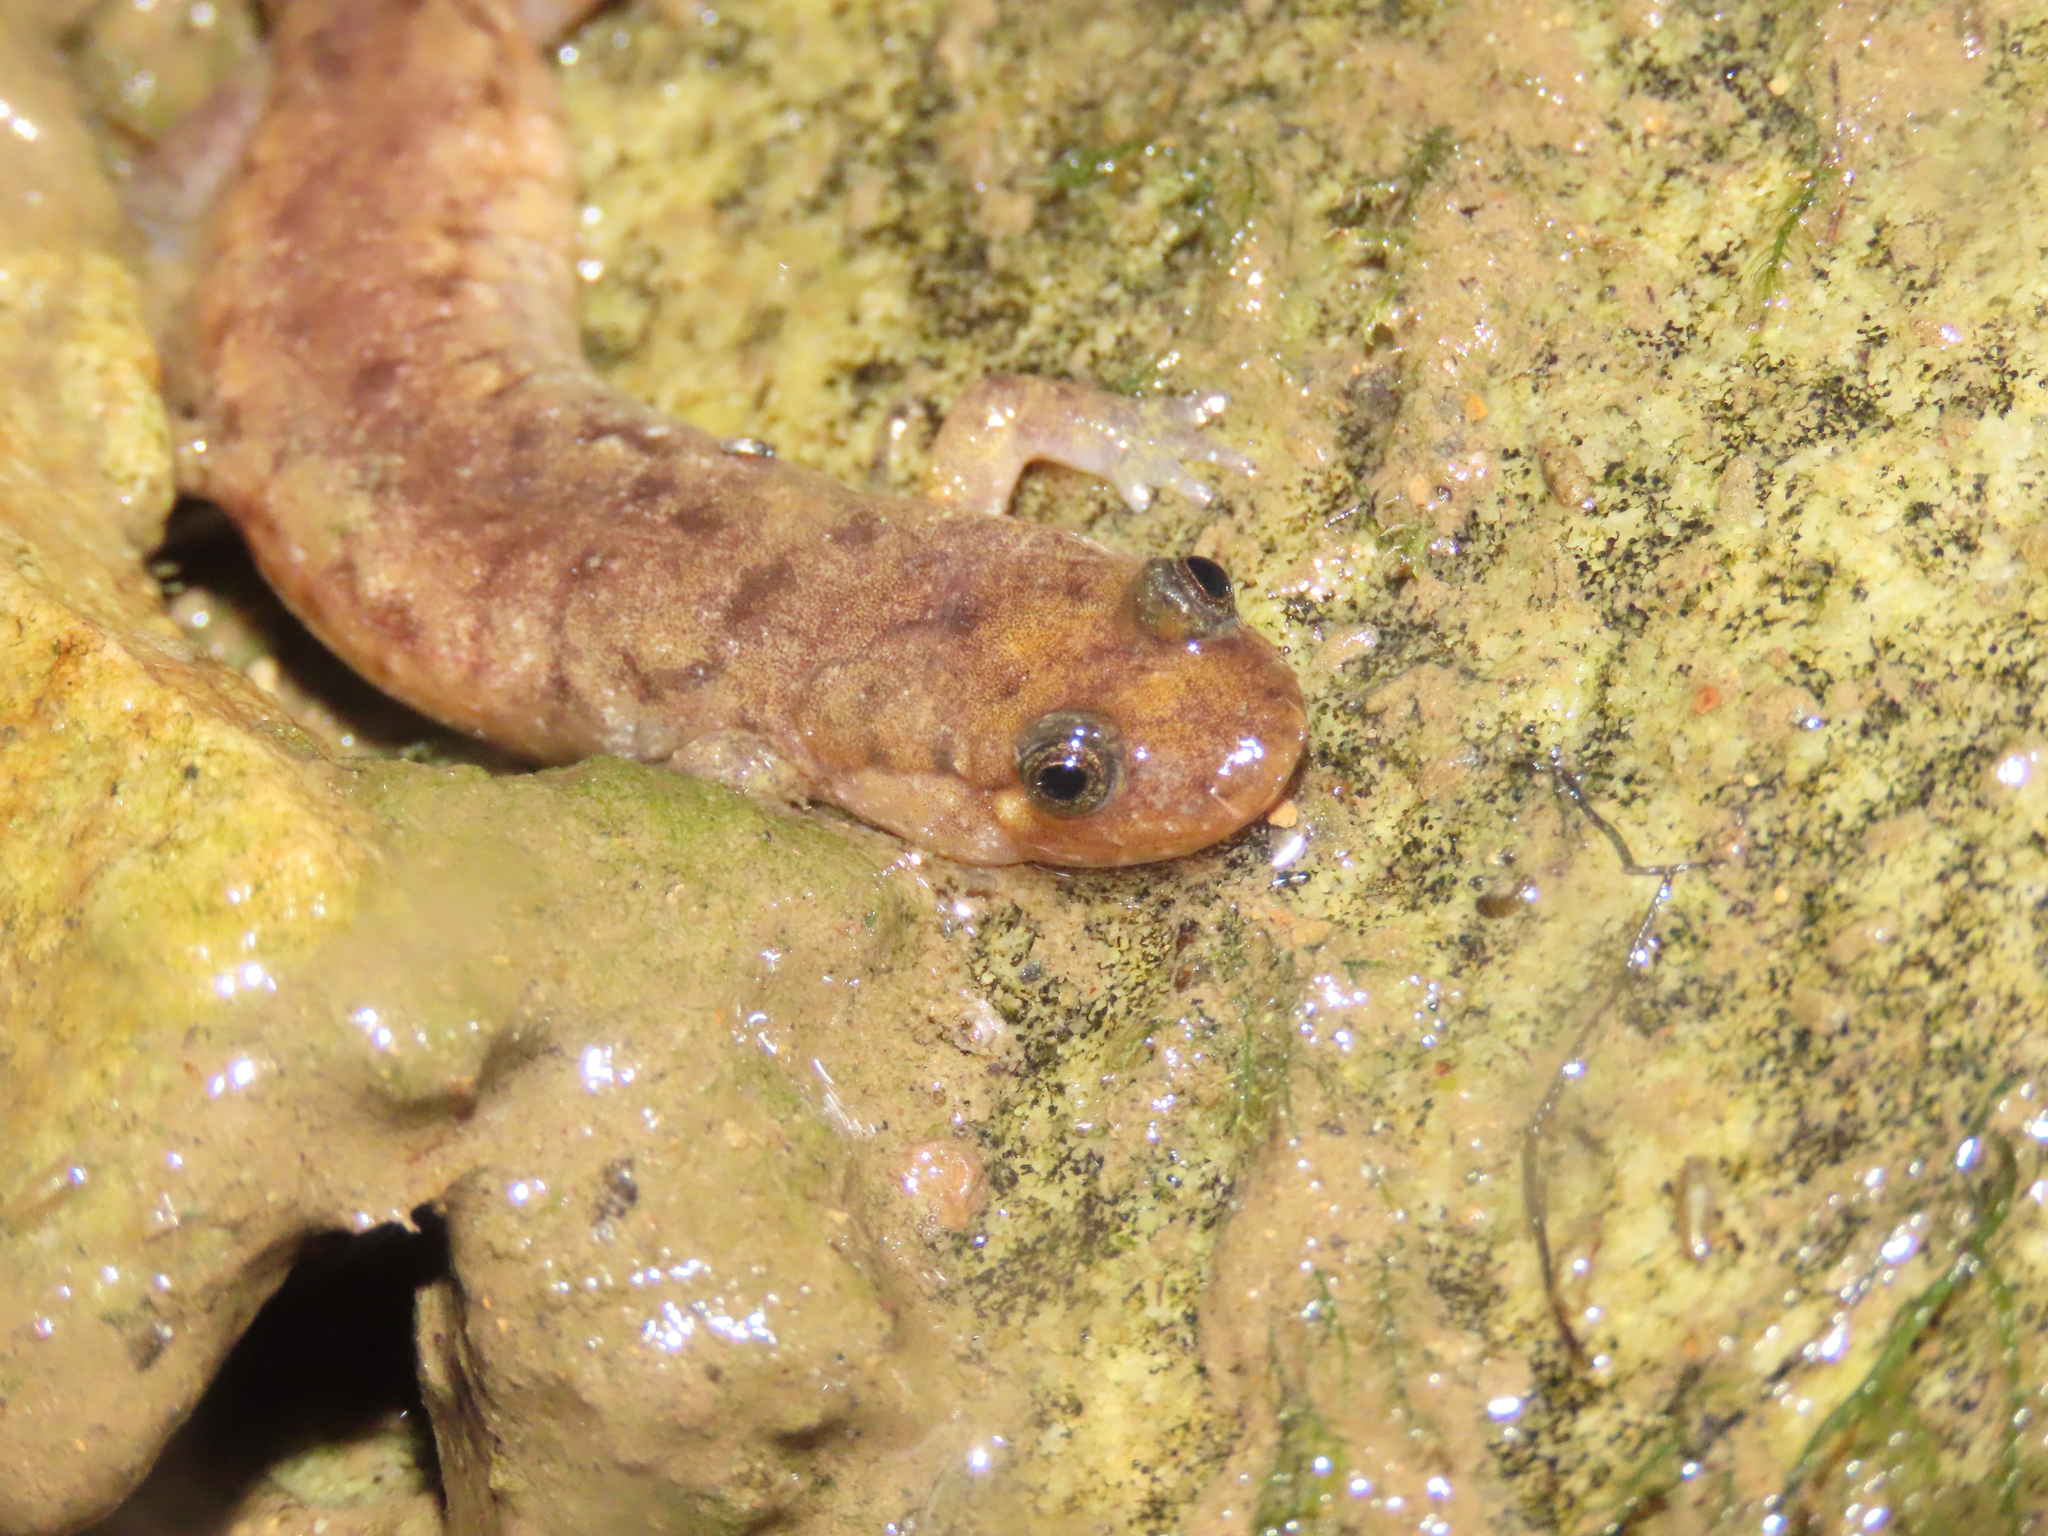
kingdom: Animalia
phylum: Chordata
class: Amphibia
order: Caudata
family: Plethodontidae
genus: Desmognathus
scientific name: Desmognathus monticola
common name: Seal salamander
